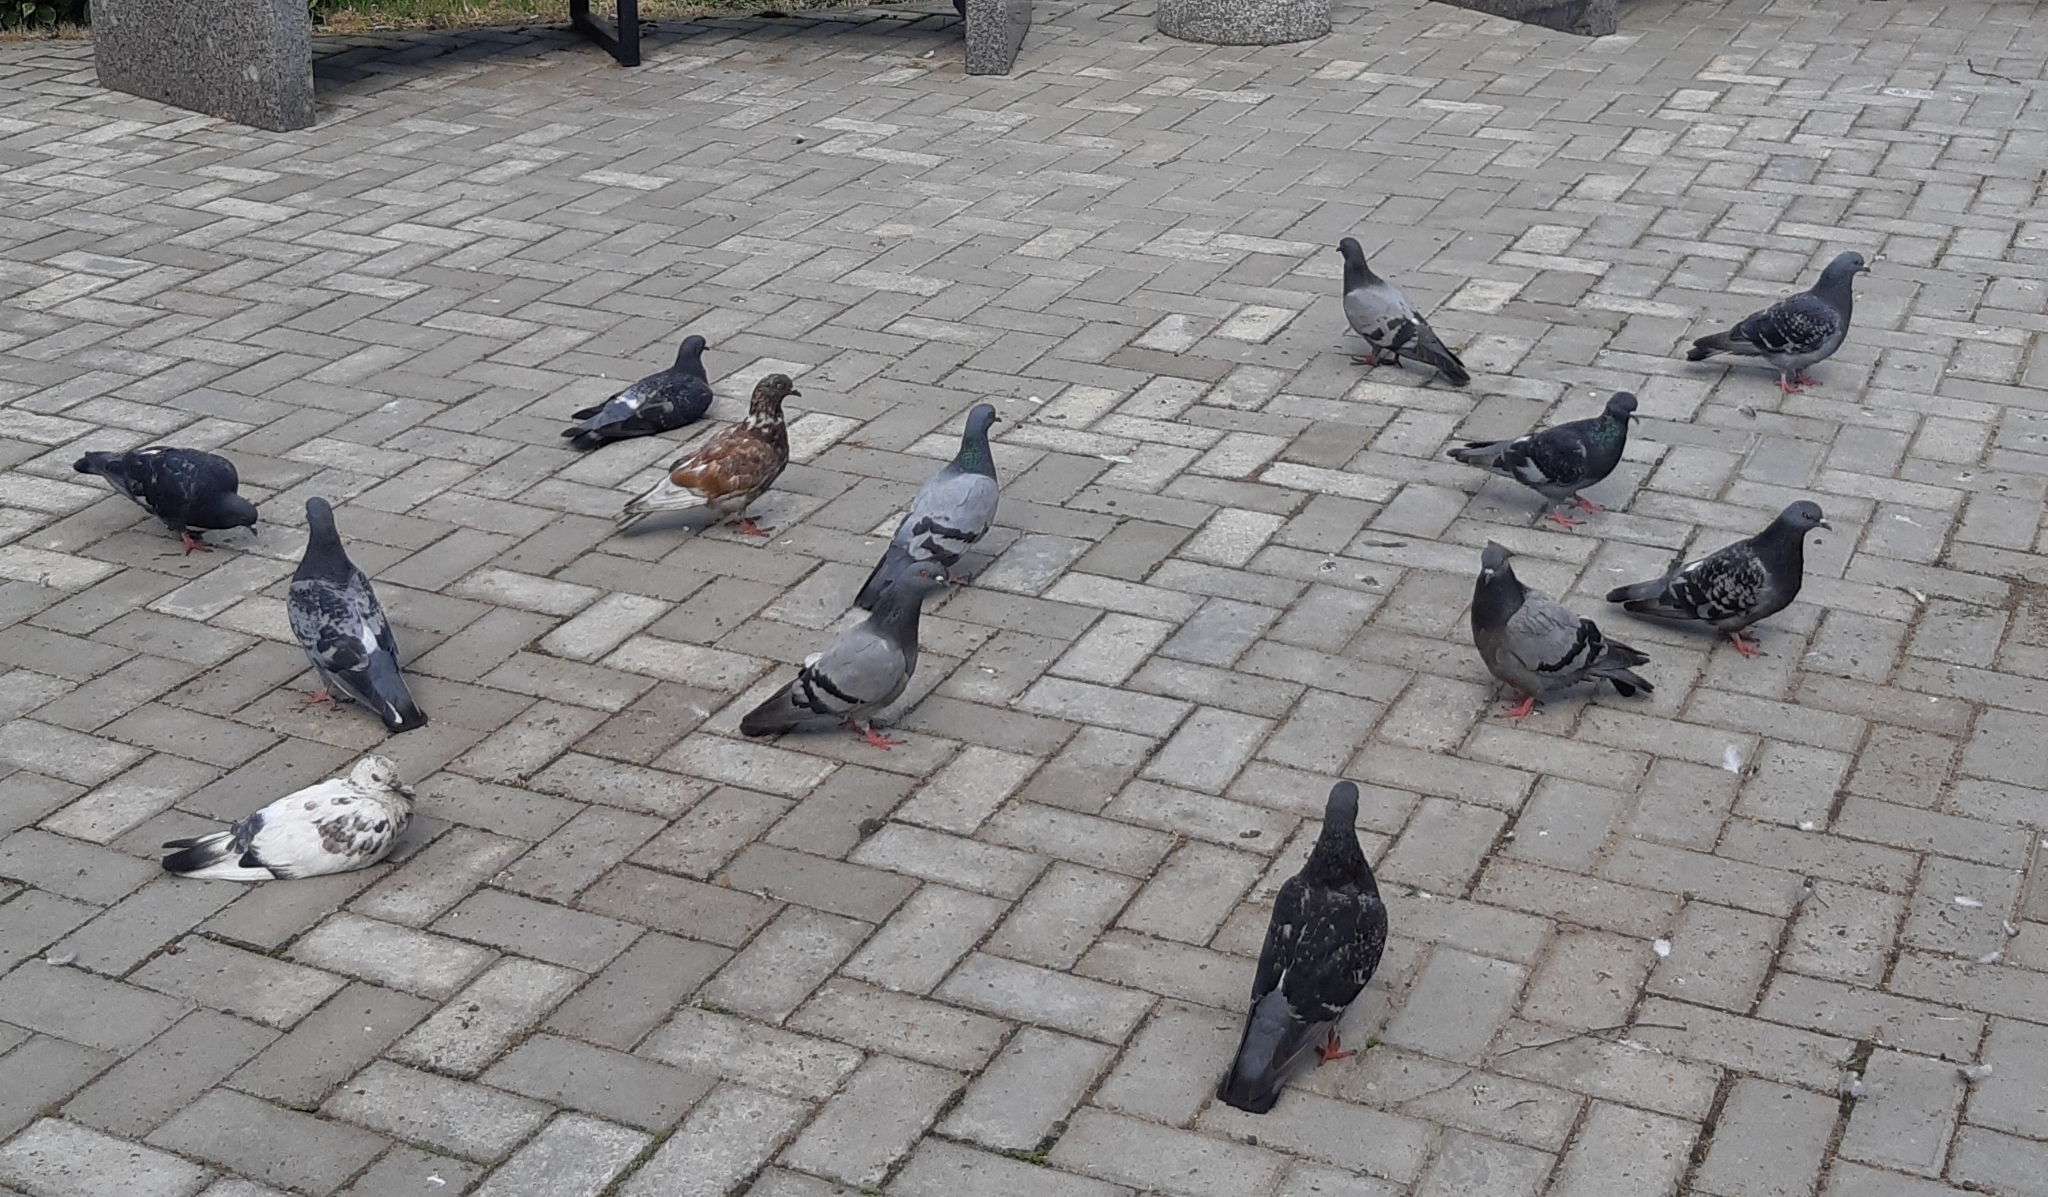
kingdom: Animalia
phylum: Chordata
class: Aves
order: Columbiformes
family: Columbidae
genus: Columba
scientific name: Columba livia
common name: Rock pigeon
